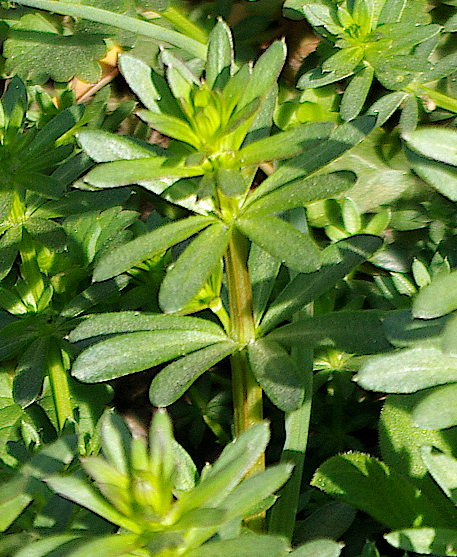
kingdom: Plantae
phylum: Tracheophyta
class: Magnoliopsida
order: Gentianales
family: Rubiaceae
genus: Galium
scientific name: Galium mollugo
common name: Hedge bedstraw
